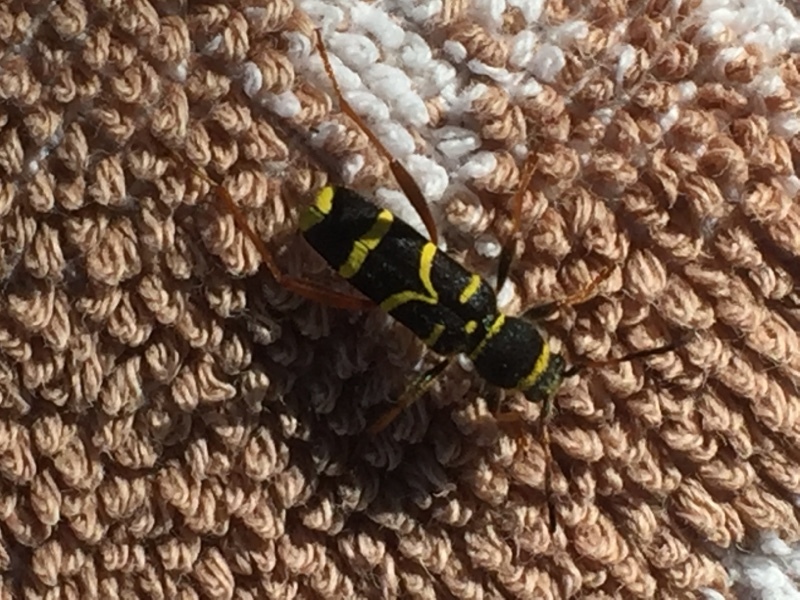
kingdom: Animalia
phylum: Arthropoda
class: Insecta
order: Coleoptera
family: Cerambycidae
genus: Clytus
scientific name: Clytus arietis
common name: Wasp beetle
